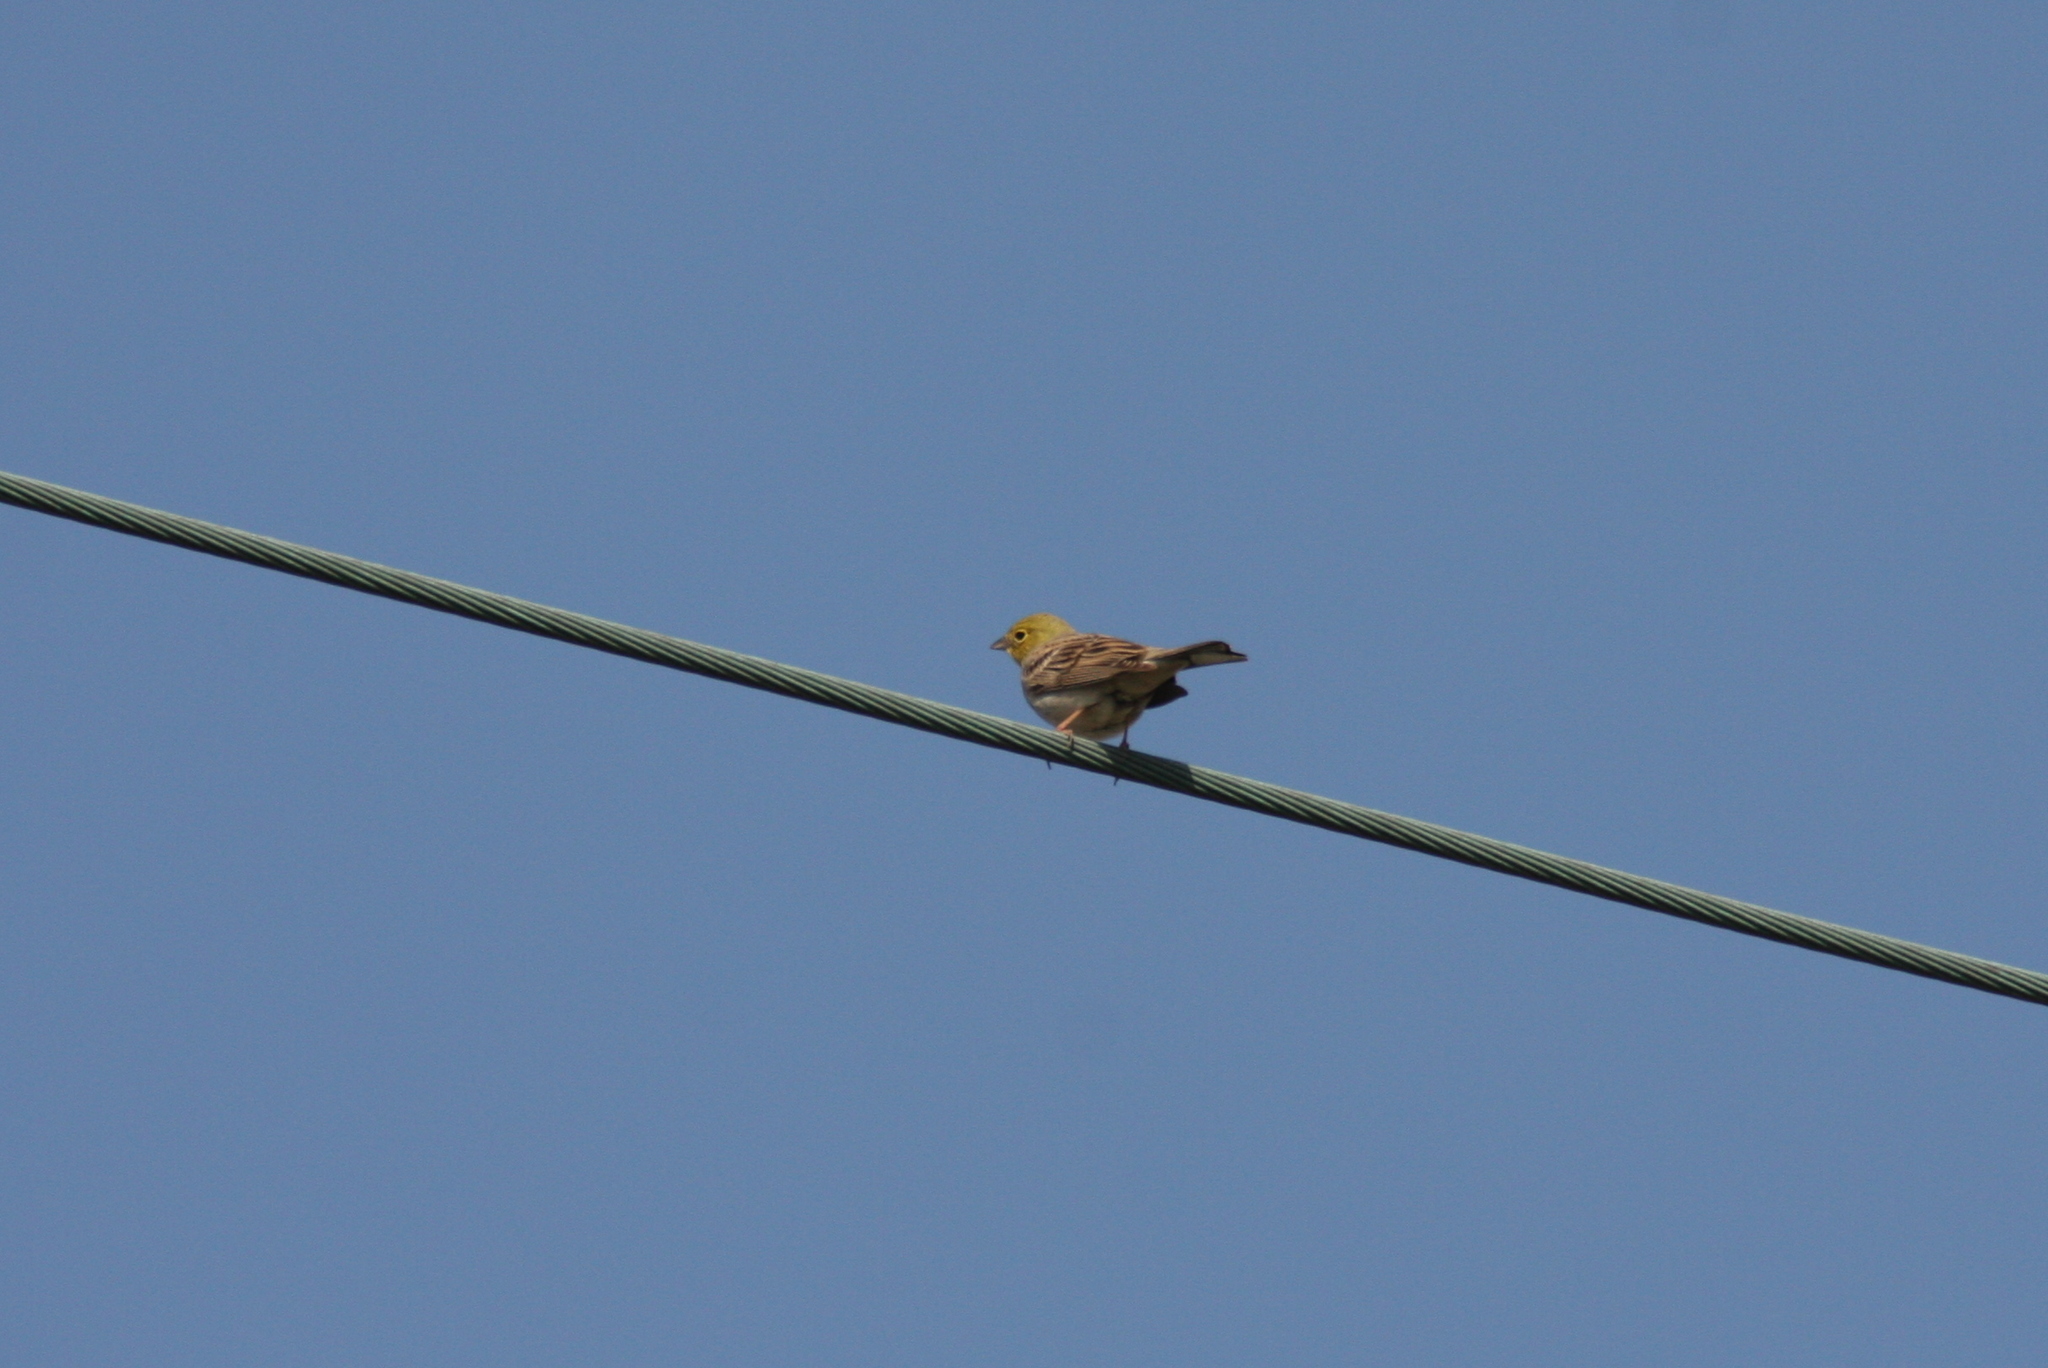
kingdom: Animalia
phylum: Chordata
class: Aves
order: Passeriformes
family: Emberizidae
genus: Emberiza
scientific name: Emberiza cineracea
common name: Cinereous bunting
